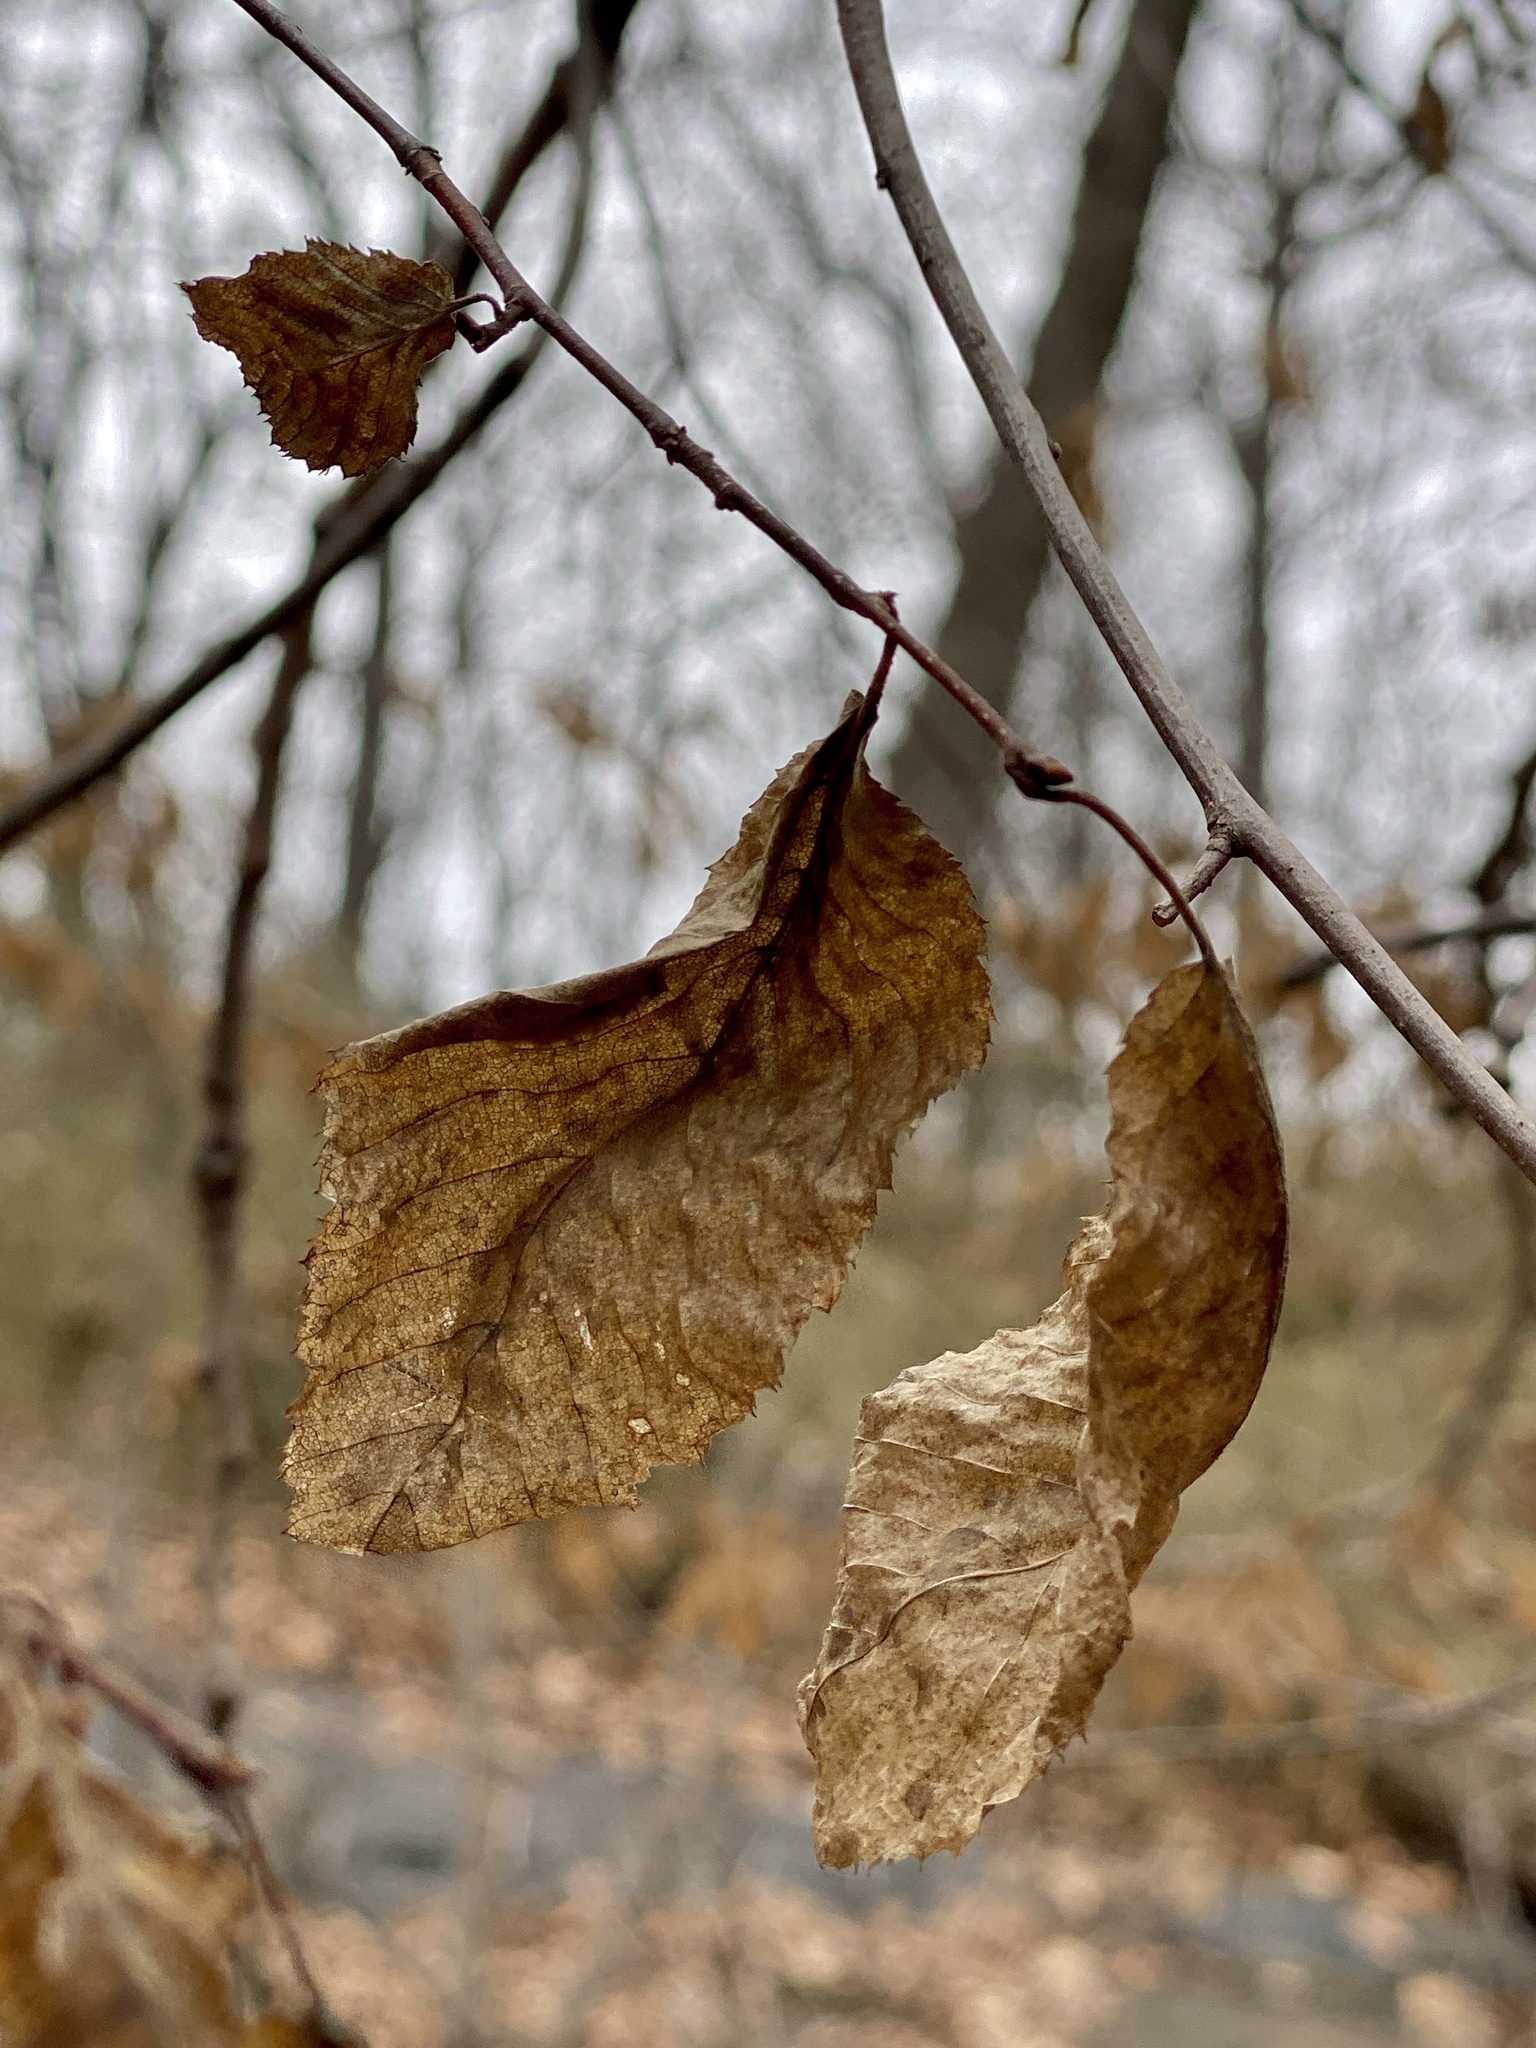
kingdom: Plantae
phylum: Tracheophyta
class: Magnoliopsida
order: Fagales
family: Betulaceae
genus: Carpinus
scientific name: Carpinus caroliniana
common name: American hornbeam
